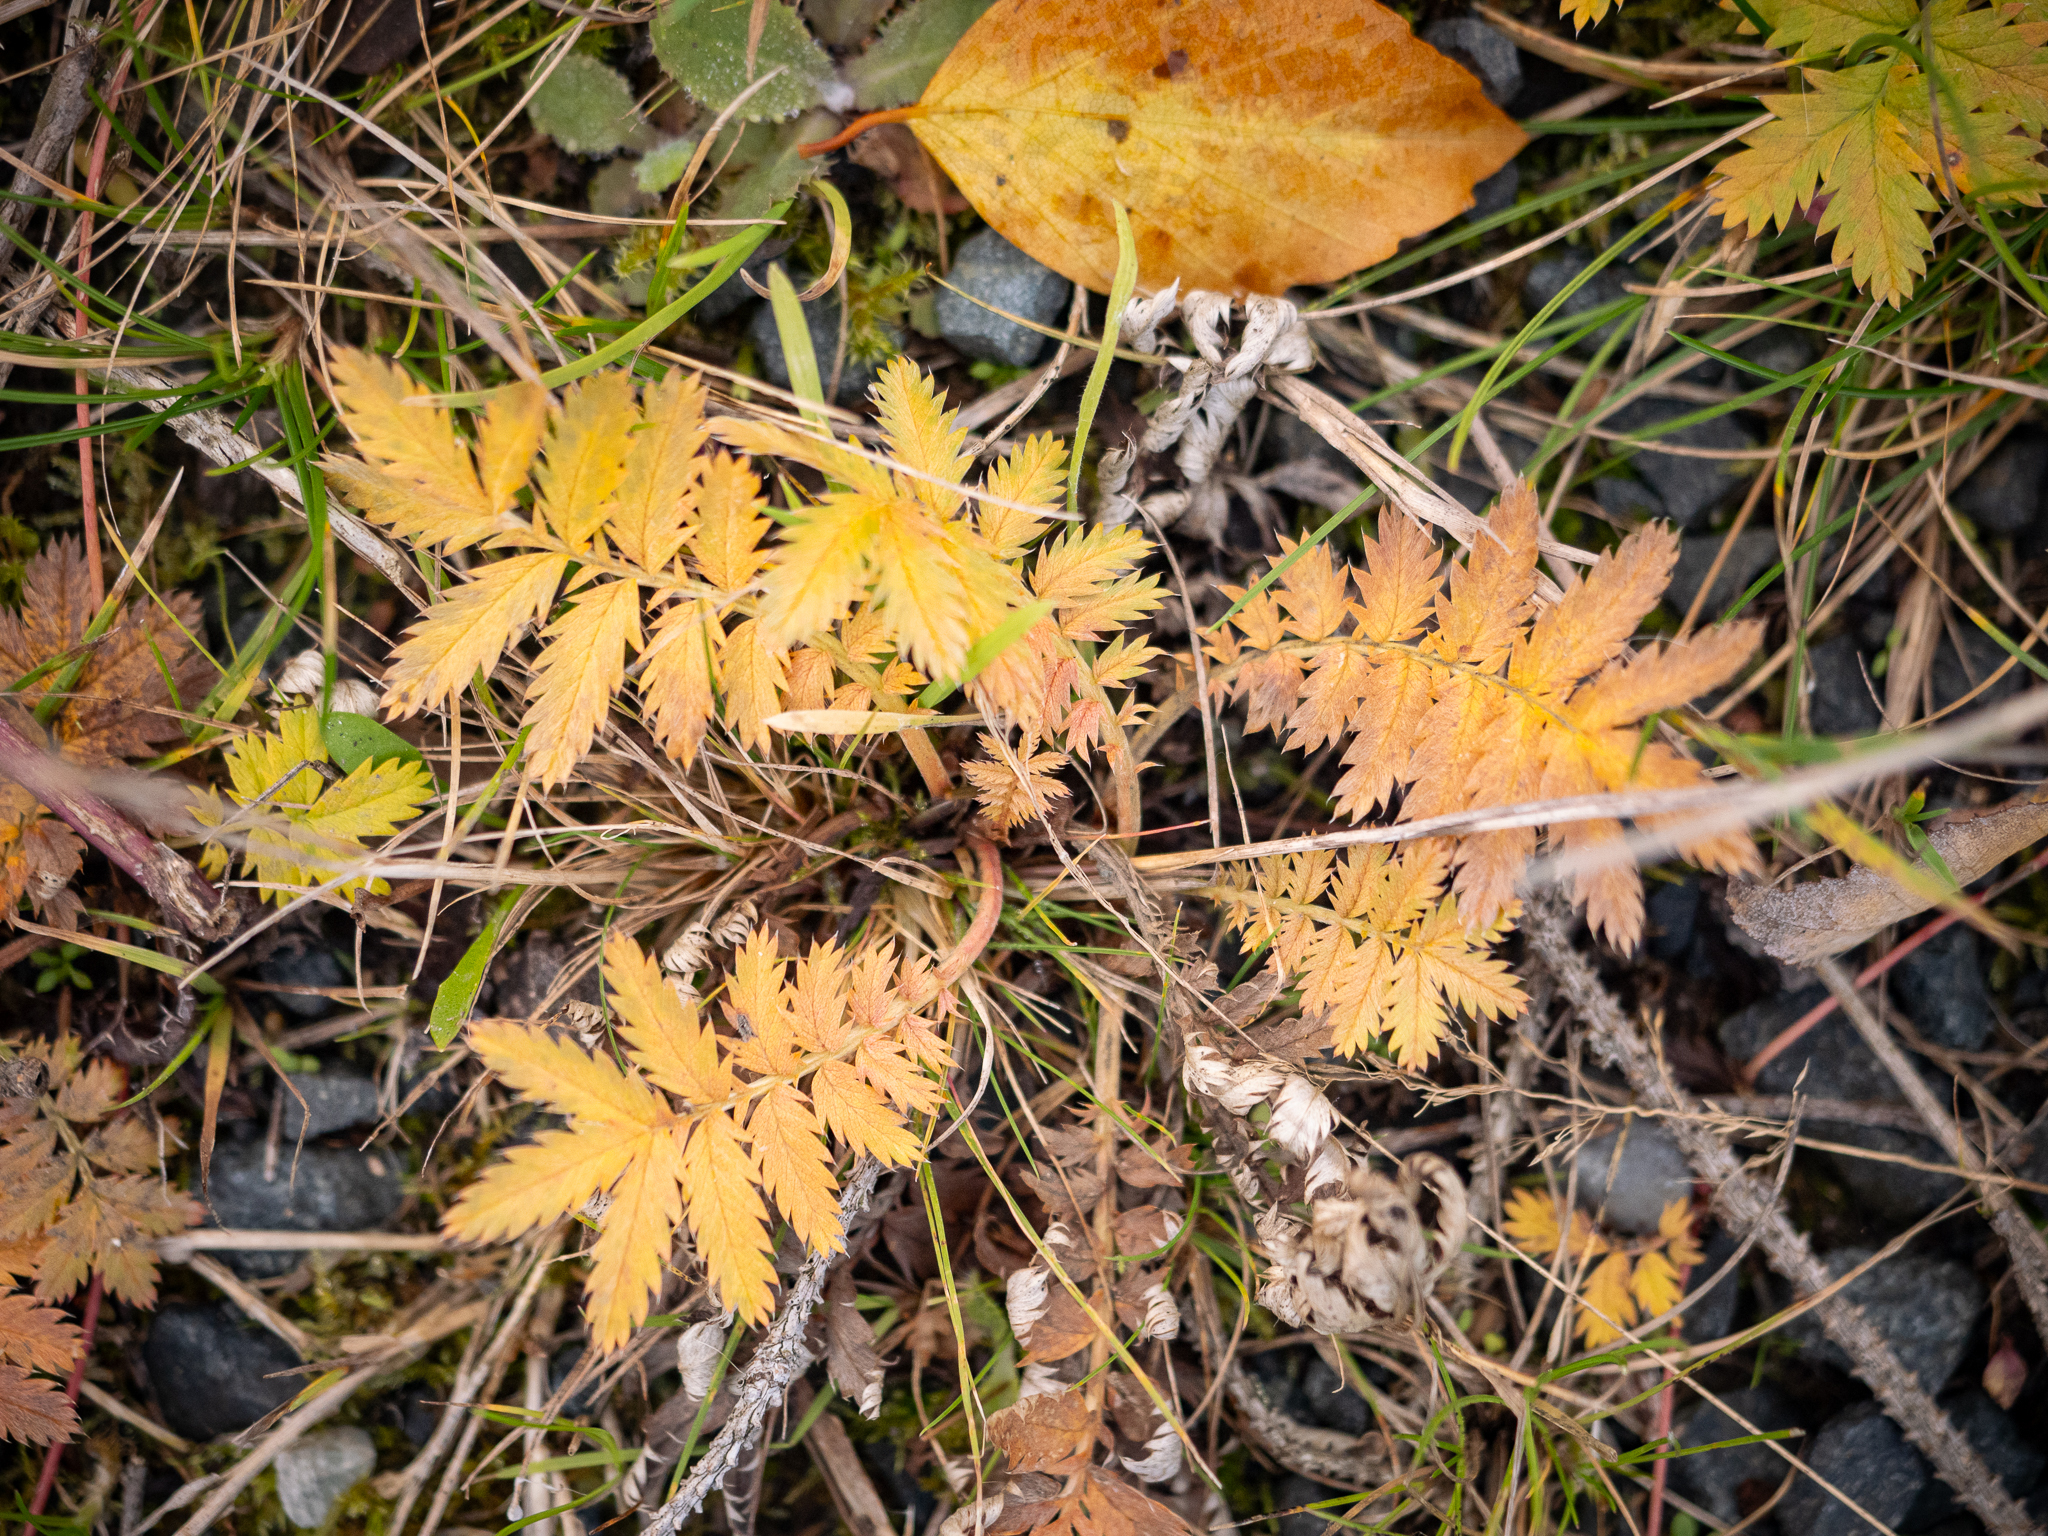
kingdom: Plantae
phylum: Tracheophyta
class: Magnoliopsida
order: Rosales
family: Rosaceae
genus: Argentina
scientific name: Argentina anserina
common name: Common silverweed
